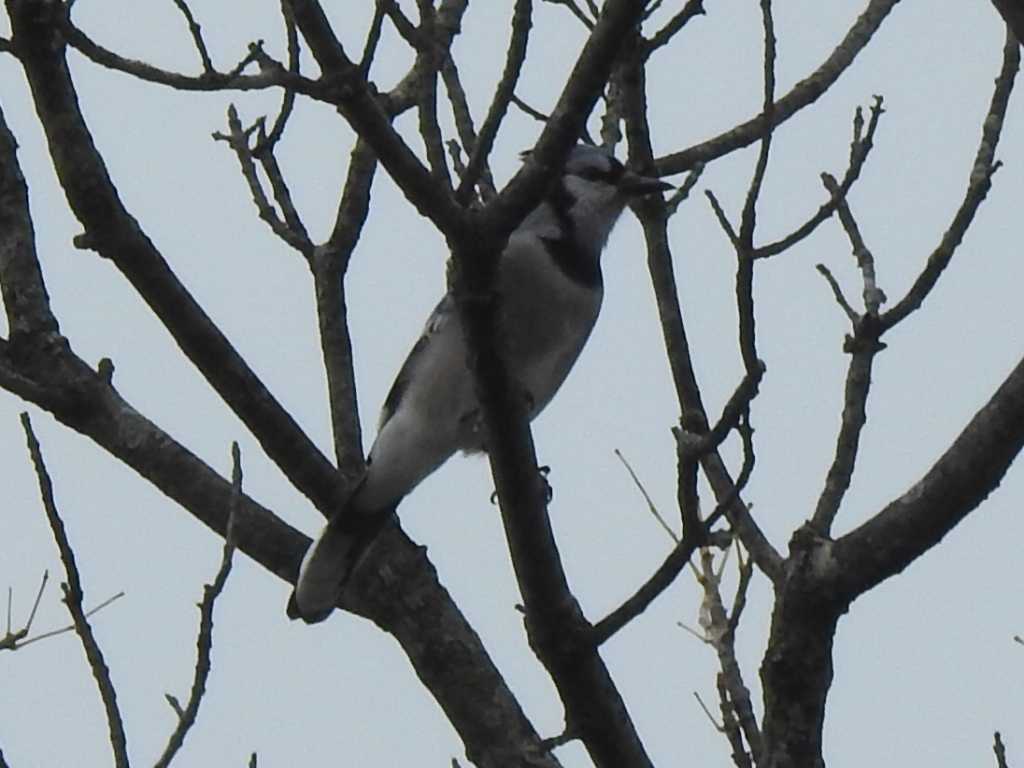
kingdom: Animalia
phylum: Chordata
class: Aves
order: Passeriformes
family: Corvidae
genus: Cyanocitta
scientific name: Cyanocitta cristata
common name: Blue jay
